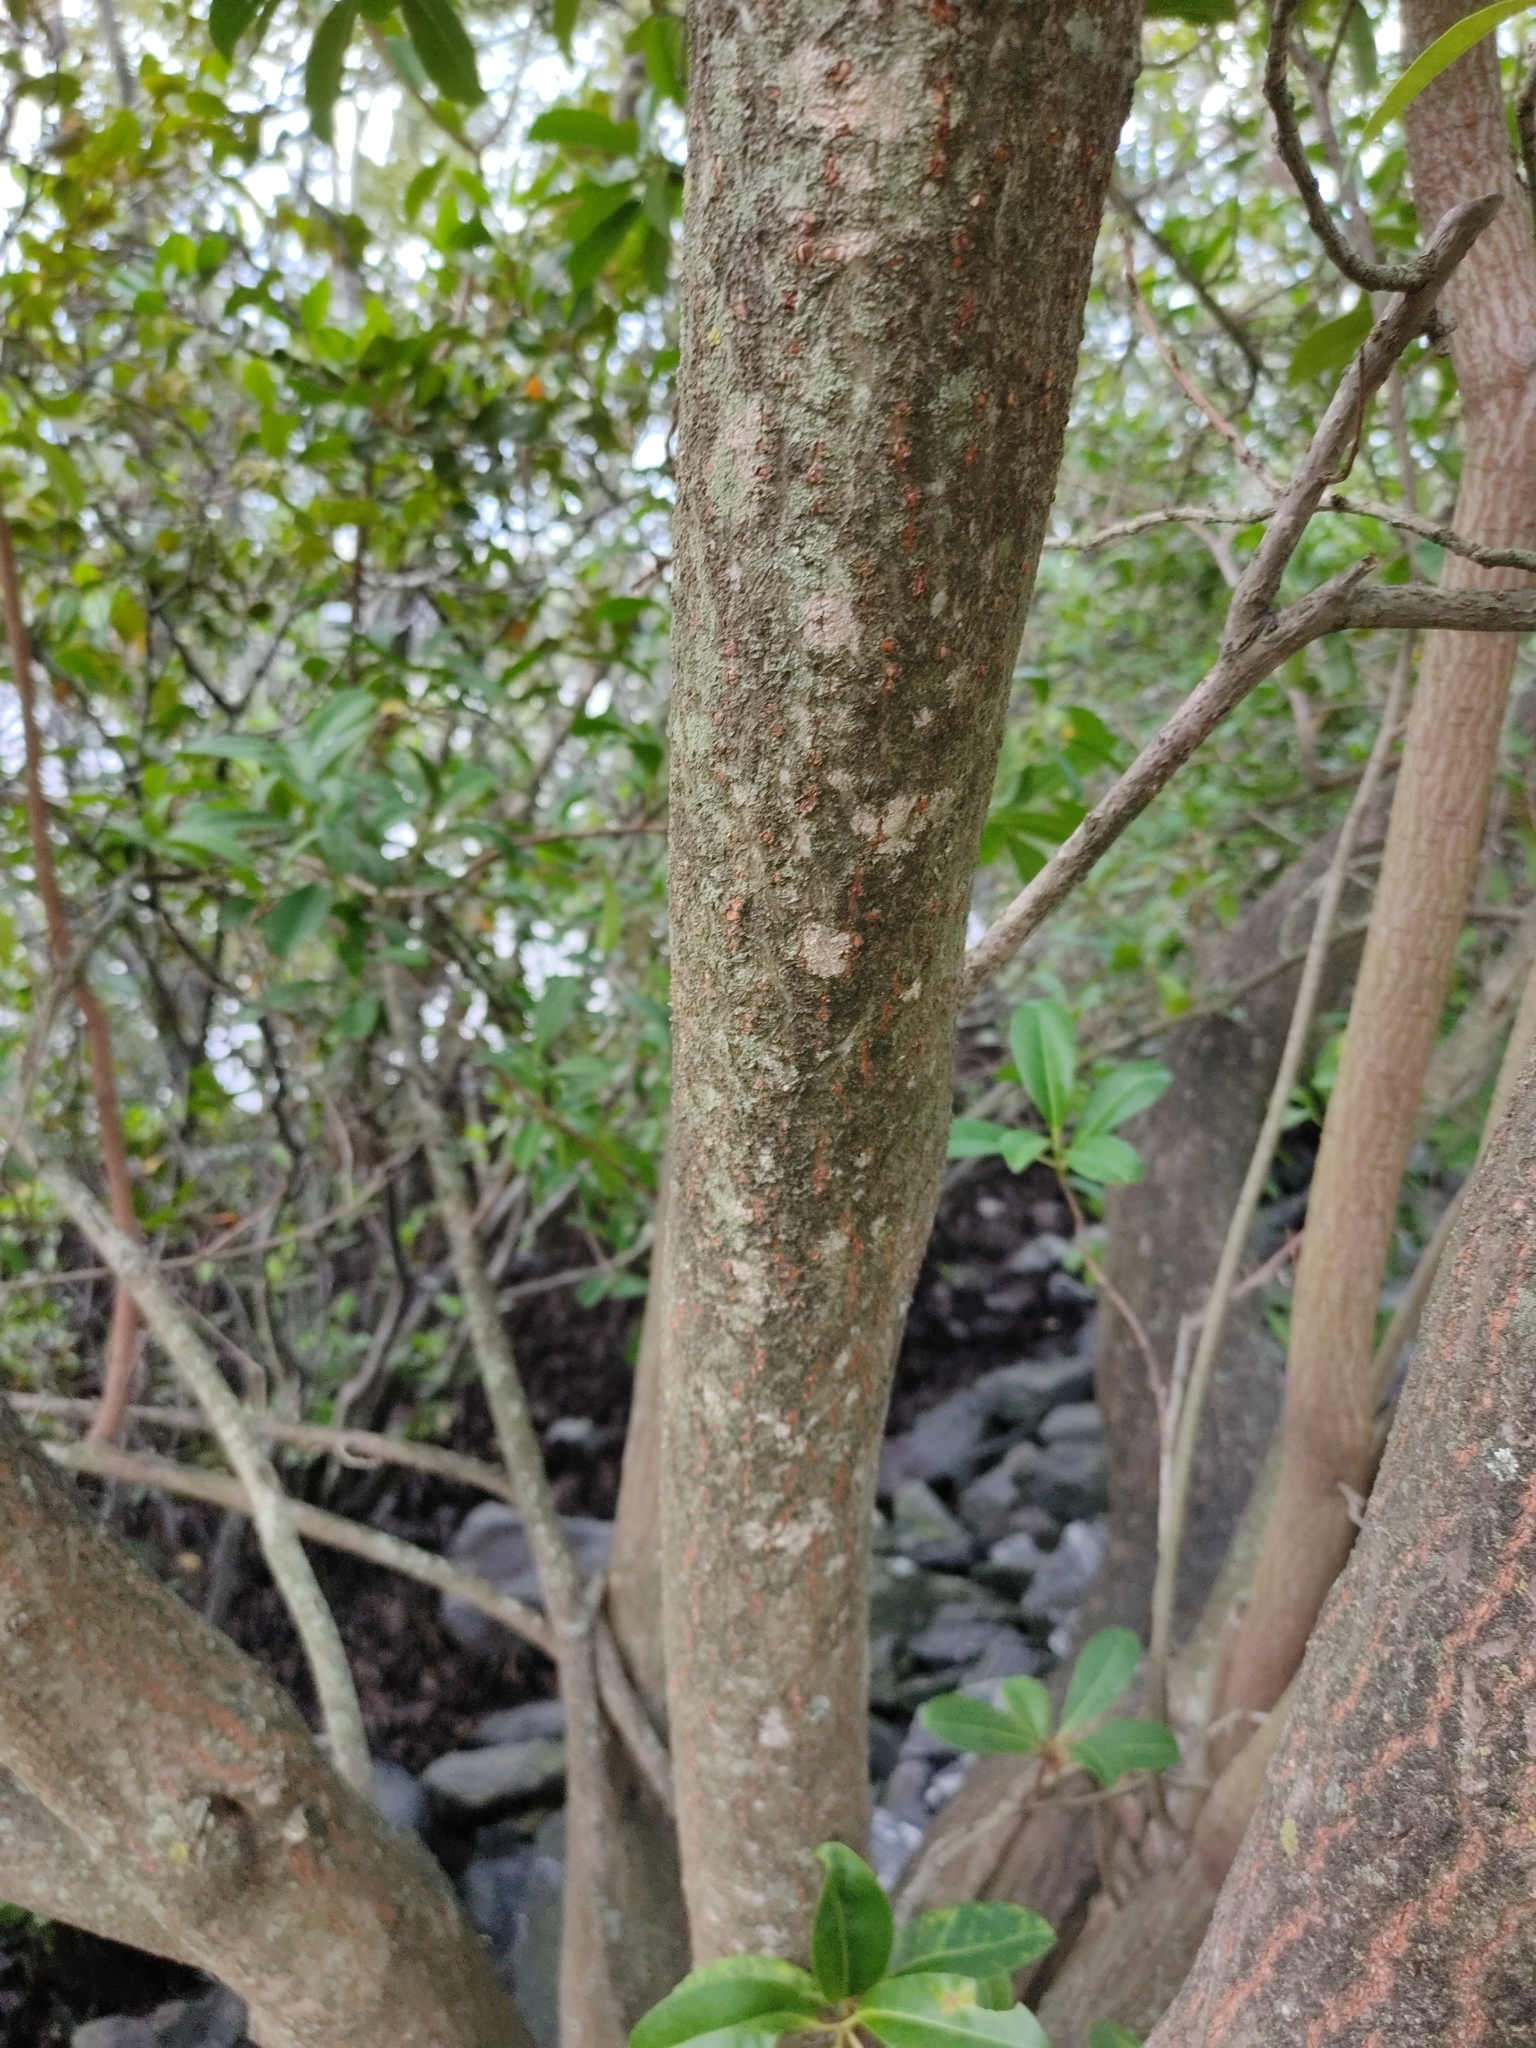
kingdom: Plantae
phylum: Tracheophyta
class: Magnoliopsida
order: Malpighiales
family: Euphorbiaceae
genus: Excoecaria
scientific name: Excoecaria agallocha
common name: River poisontree
